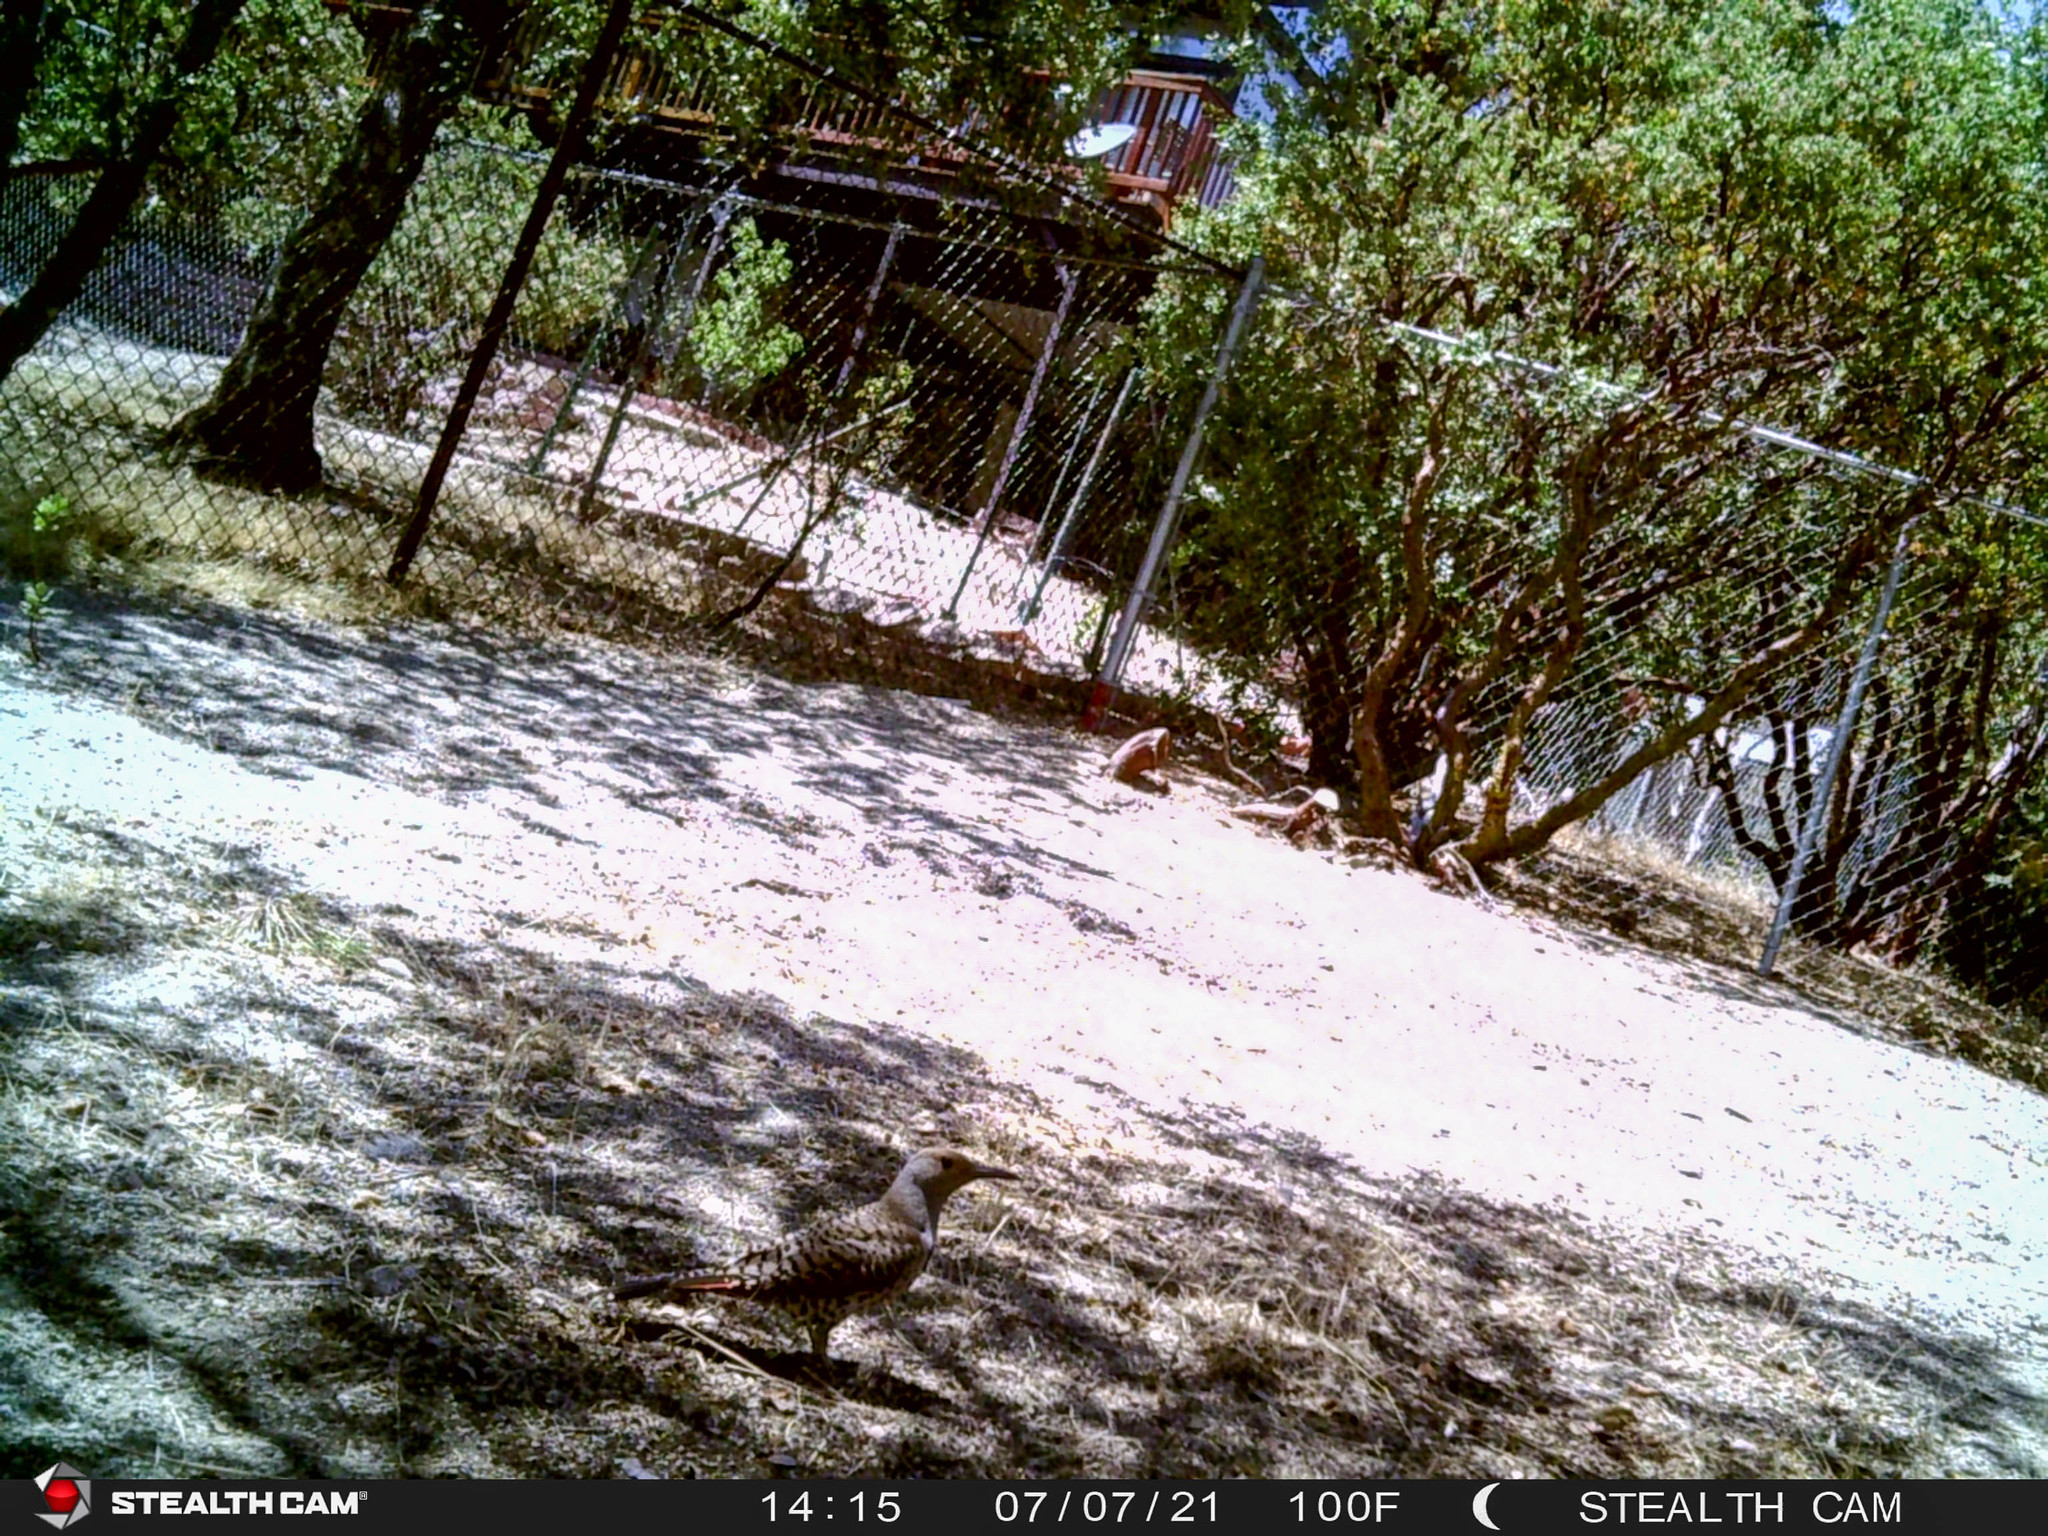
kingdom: Animalia
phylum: Chordata
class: Aves
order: Piciformes
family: Picidae
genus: Colaptes
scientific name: Colaptes auratus
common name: Northern flicker
